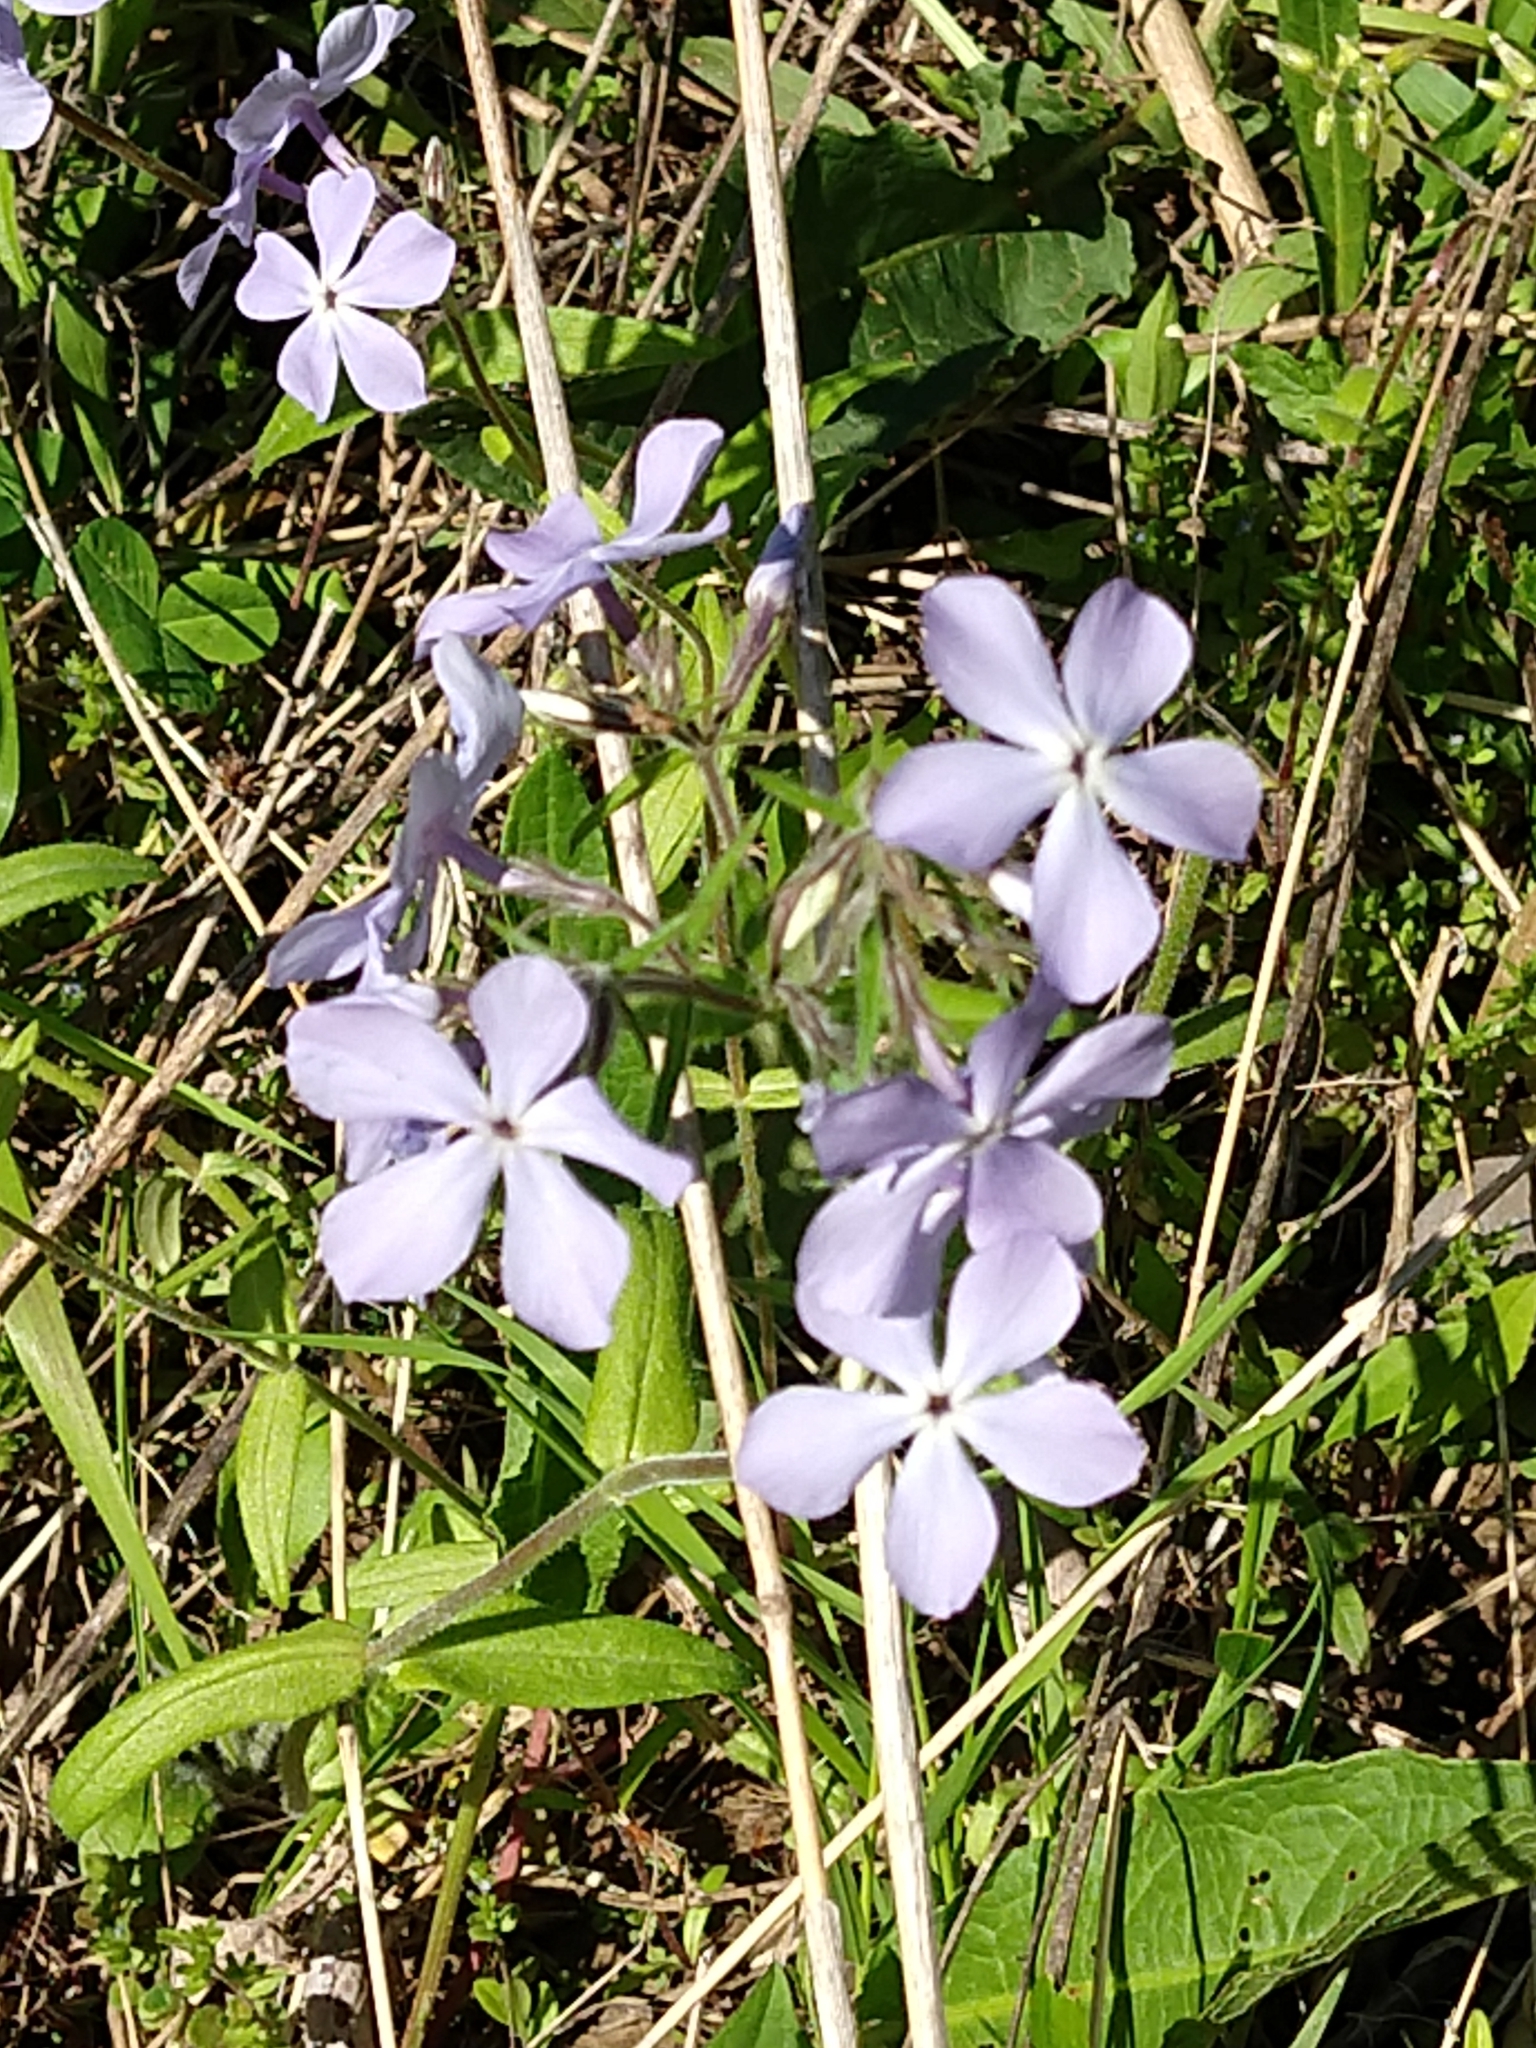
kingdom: Plantae
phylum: Tracheophyta
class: Magnoliopsida
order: Ericales
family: Polemoniaceae
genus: Phlox
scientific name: Phlox divaricata
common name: Blue phlox
